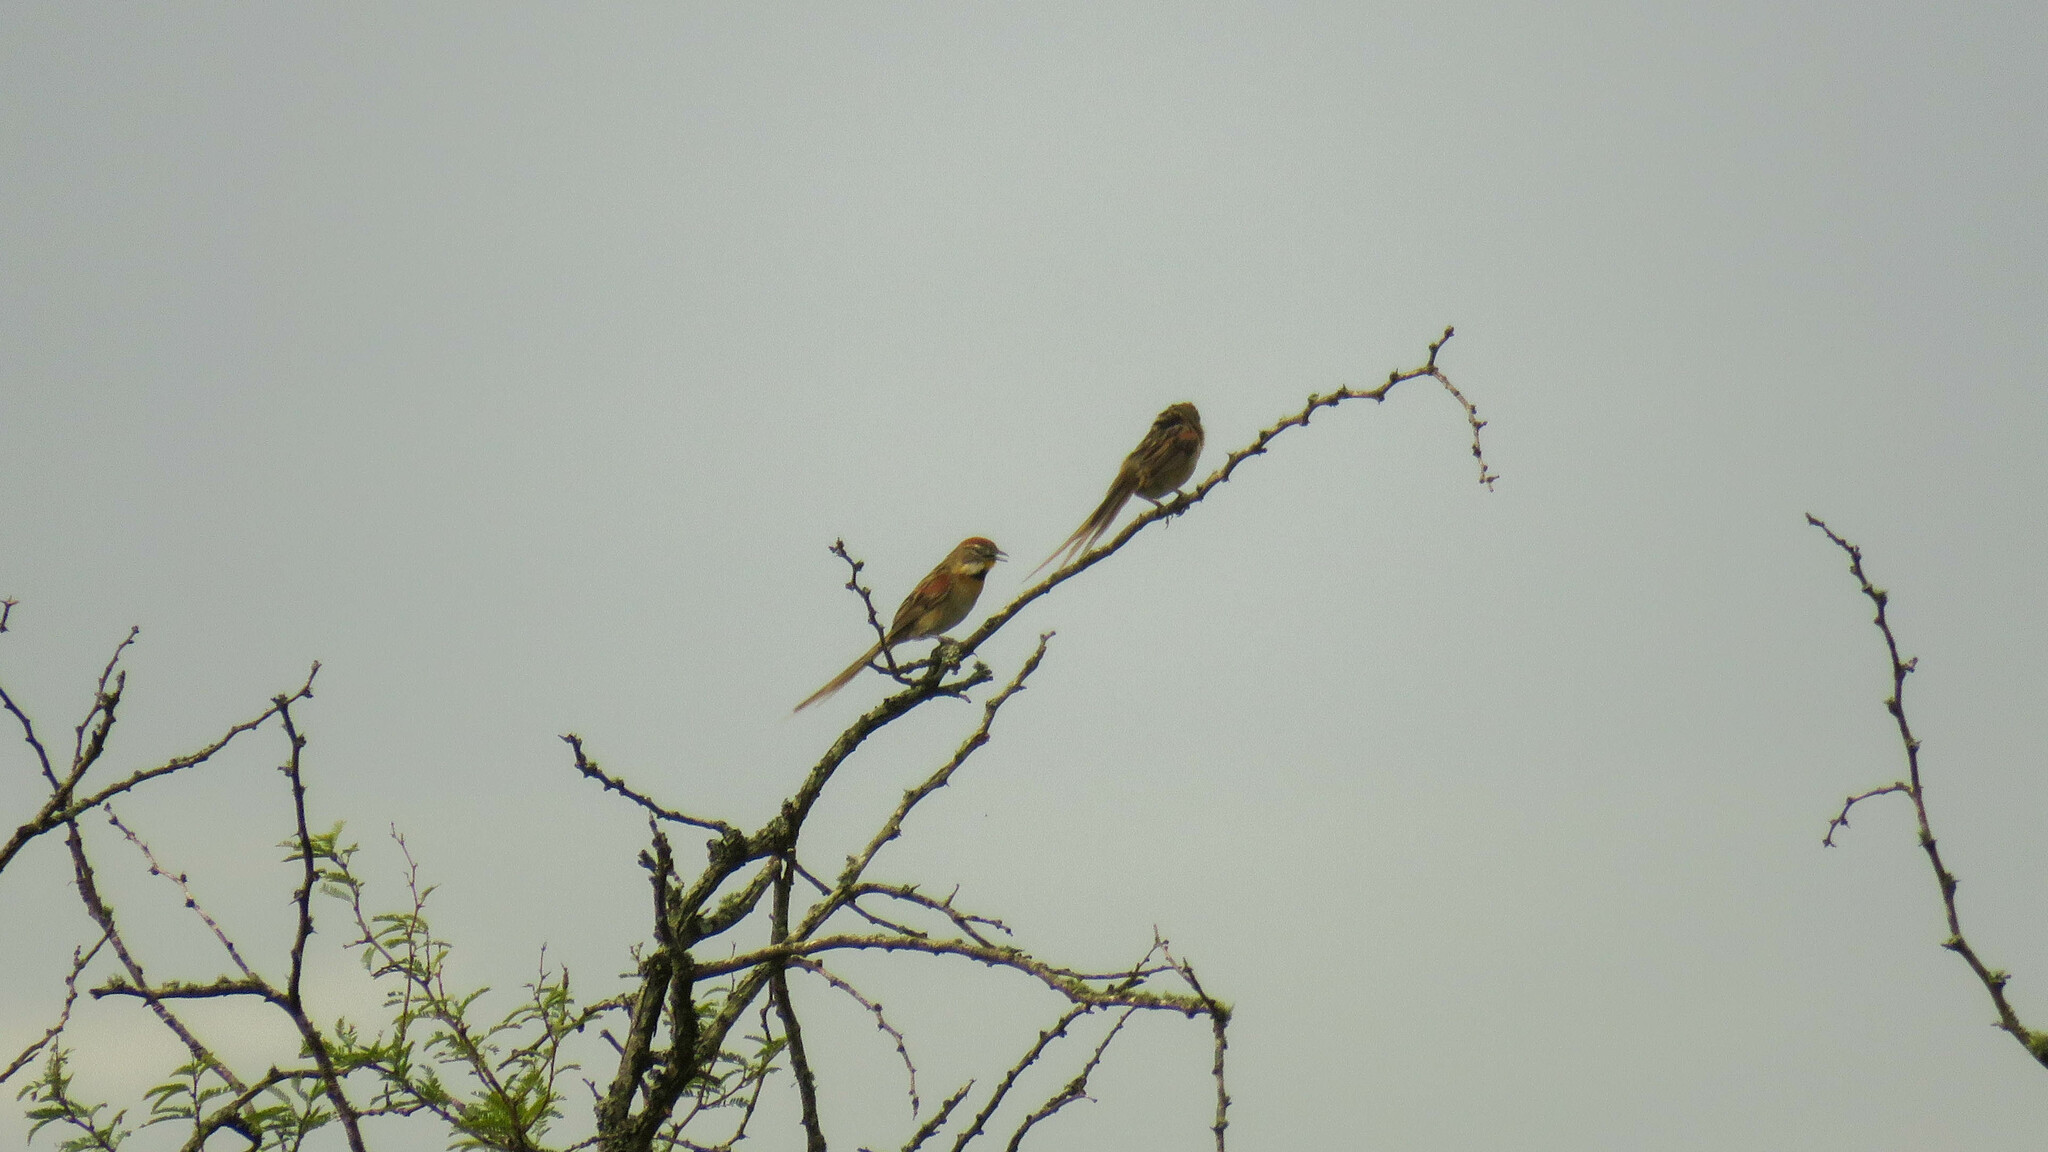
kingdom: Animalia
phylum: Chordata
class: Aves
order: Passeriformes
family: Furnariidae
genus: Schoeniophylax
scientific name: Schoeniophylax phryganophilus
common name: Chotoy spinetail
